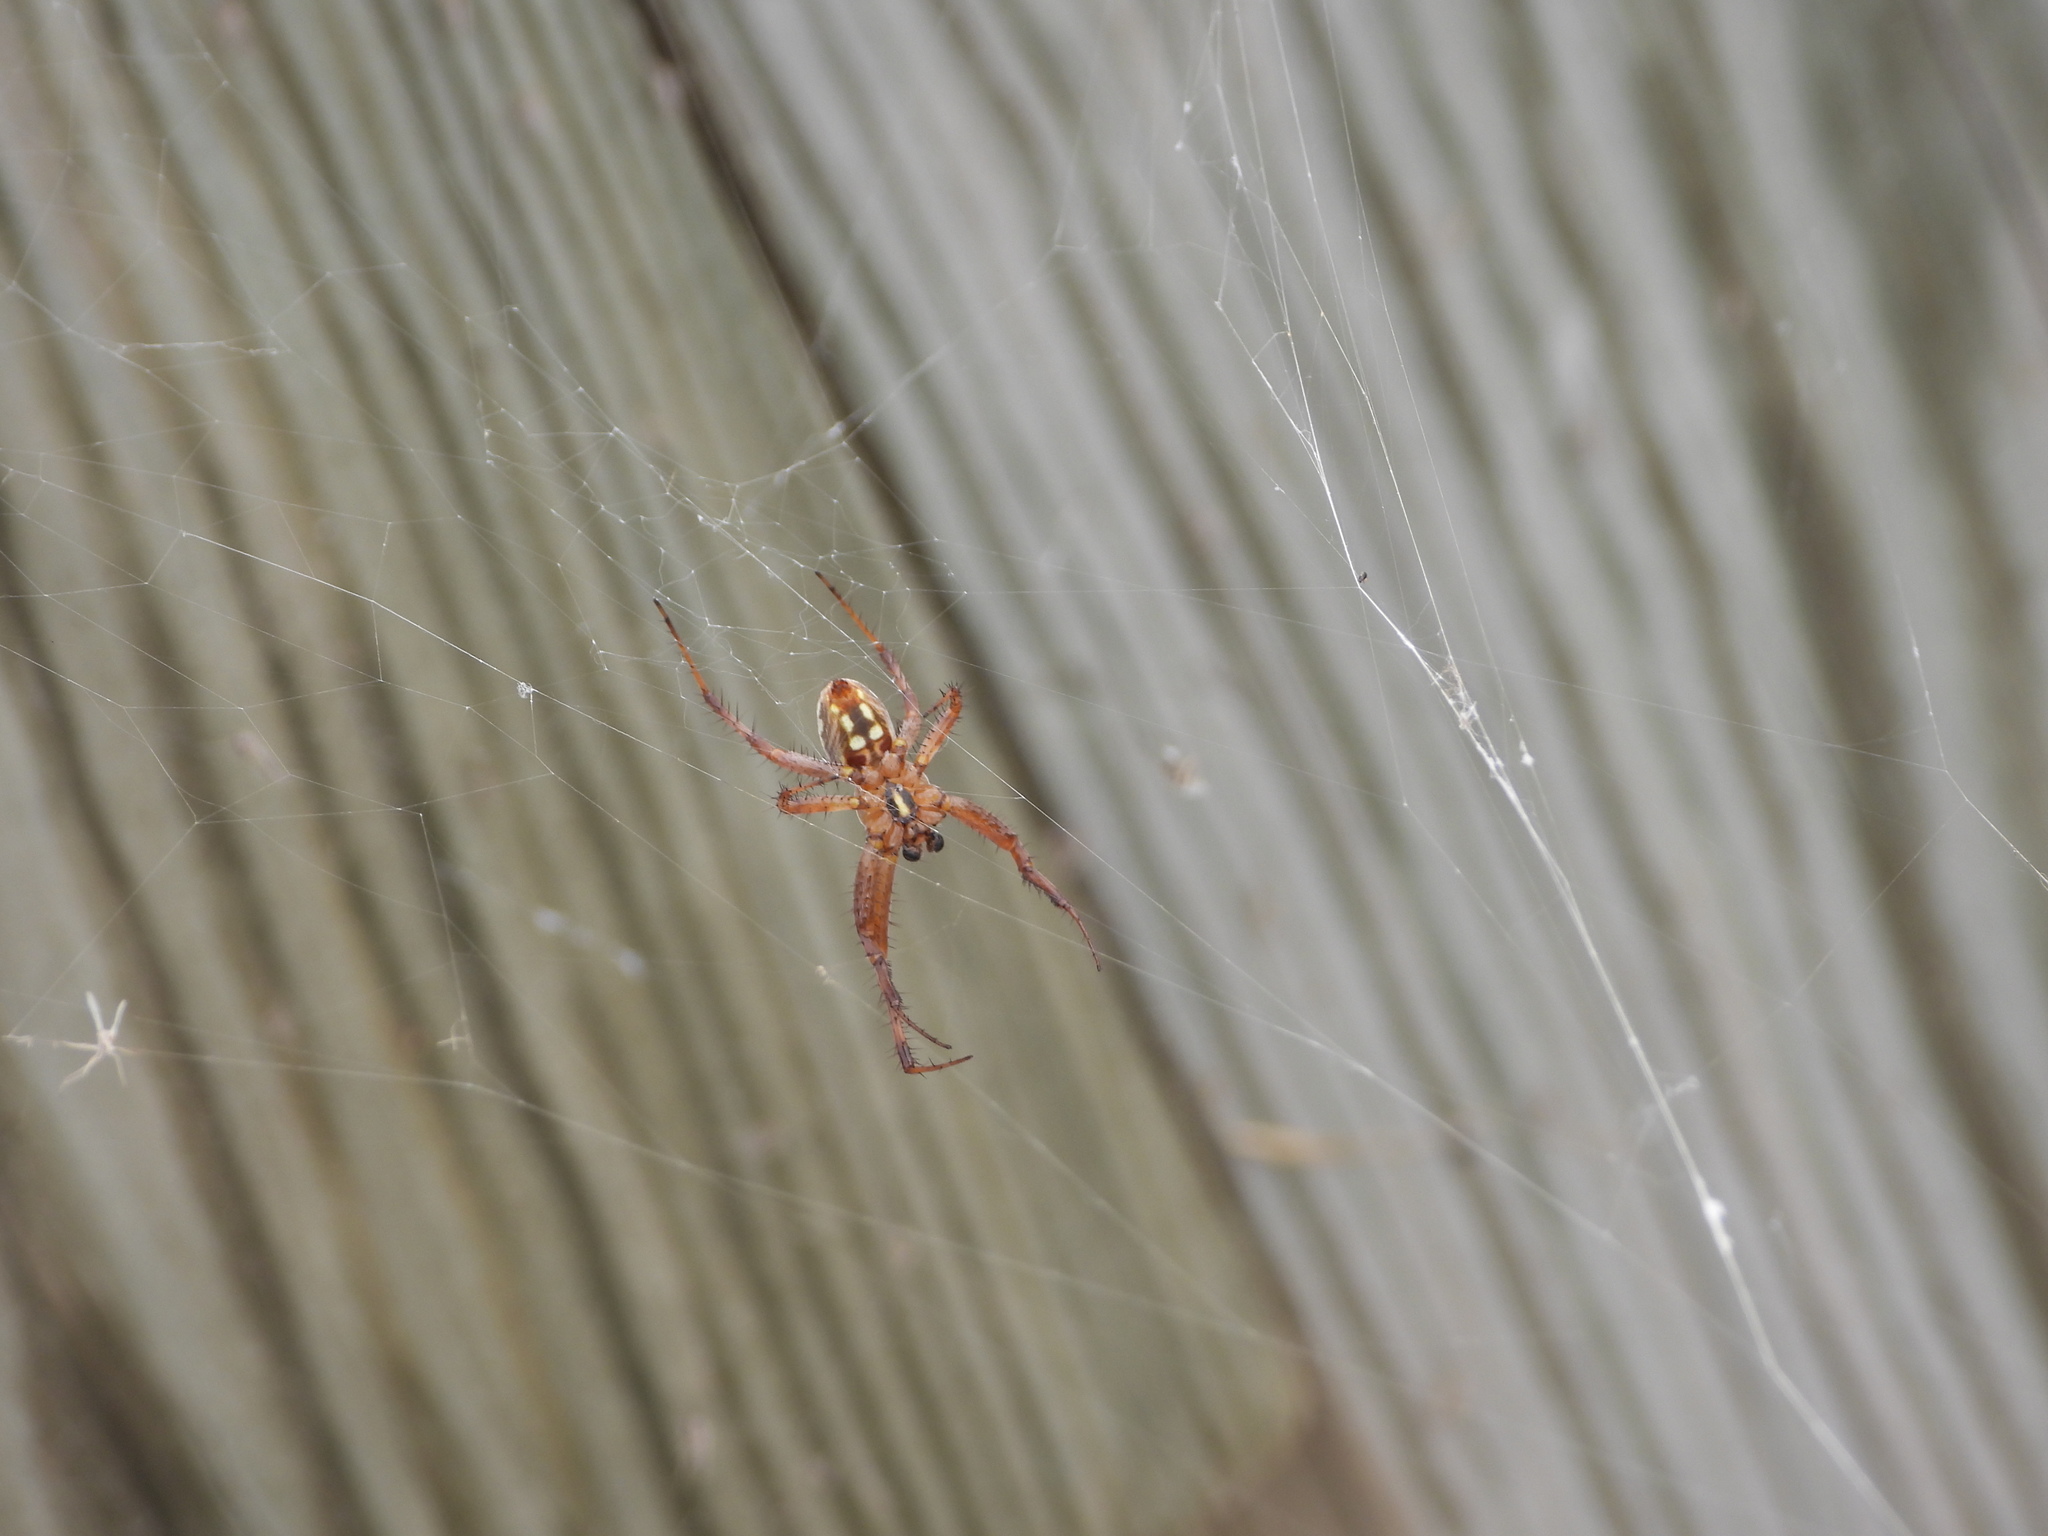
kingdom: Animalia
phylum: Arthropoda
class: Arachnida
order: Araneae
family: Araneidae
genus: Neoscona
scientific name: Neoscona oaxacensis
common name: Orb weavers
